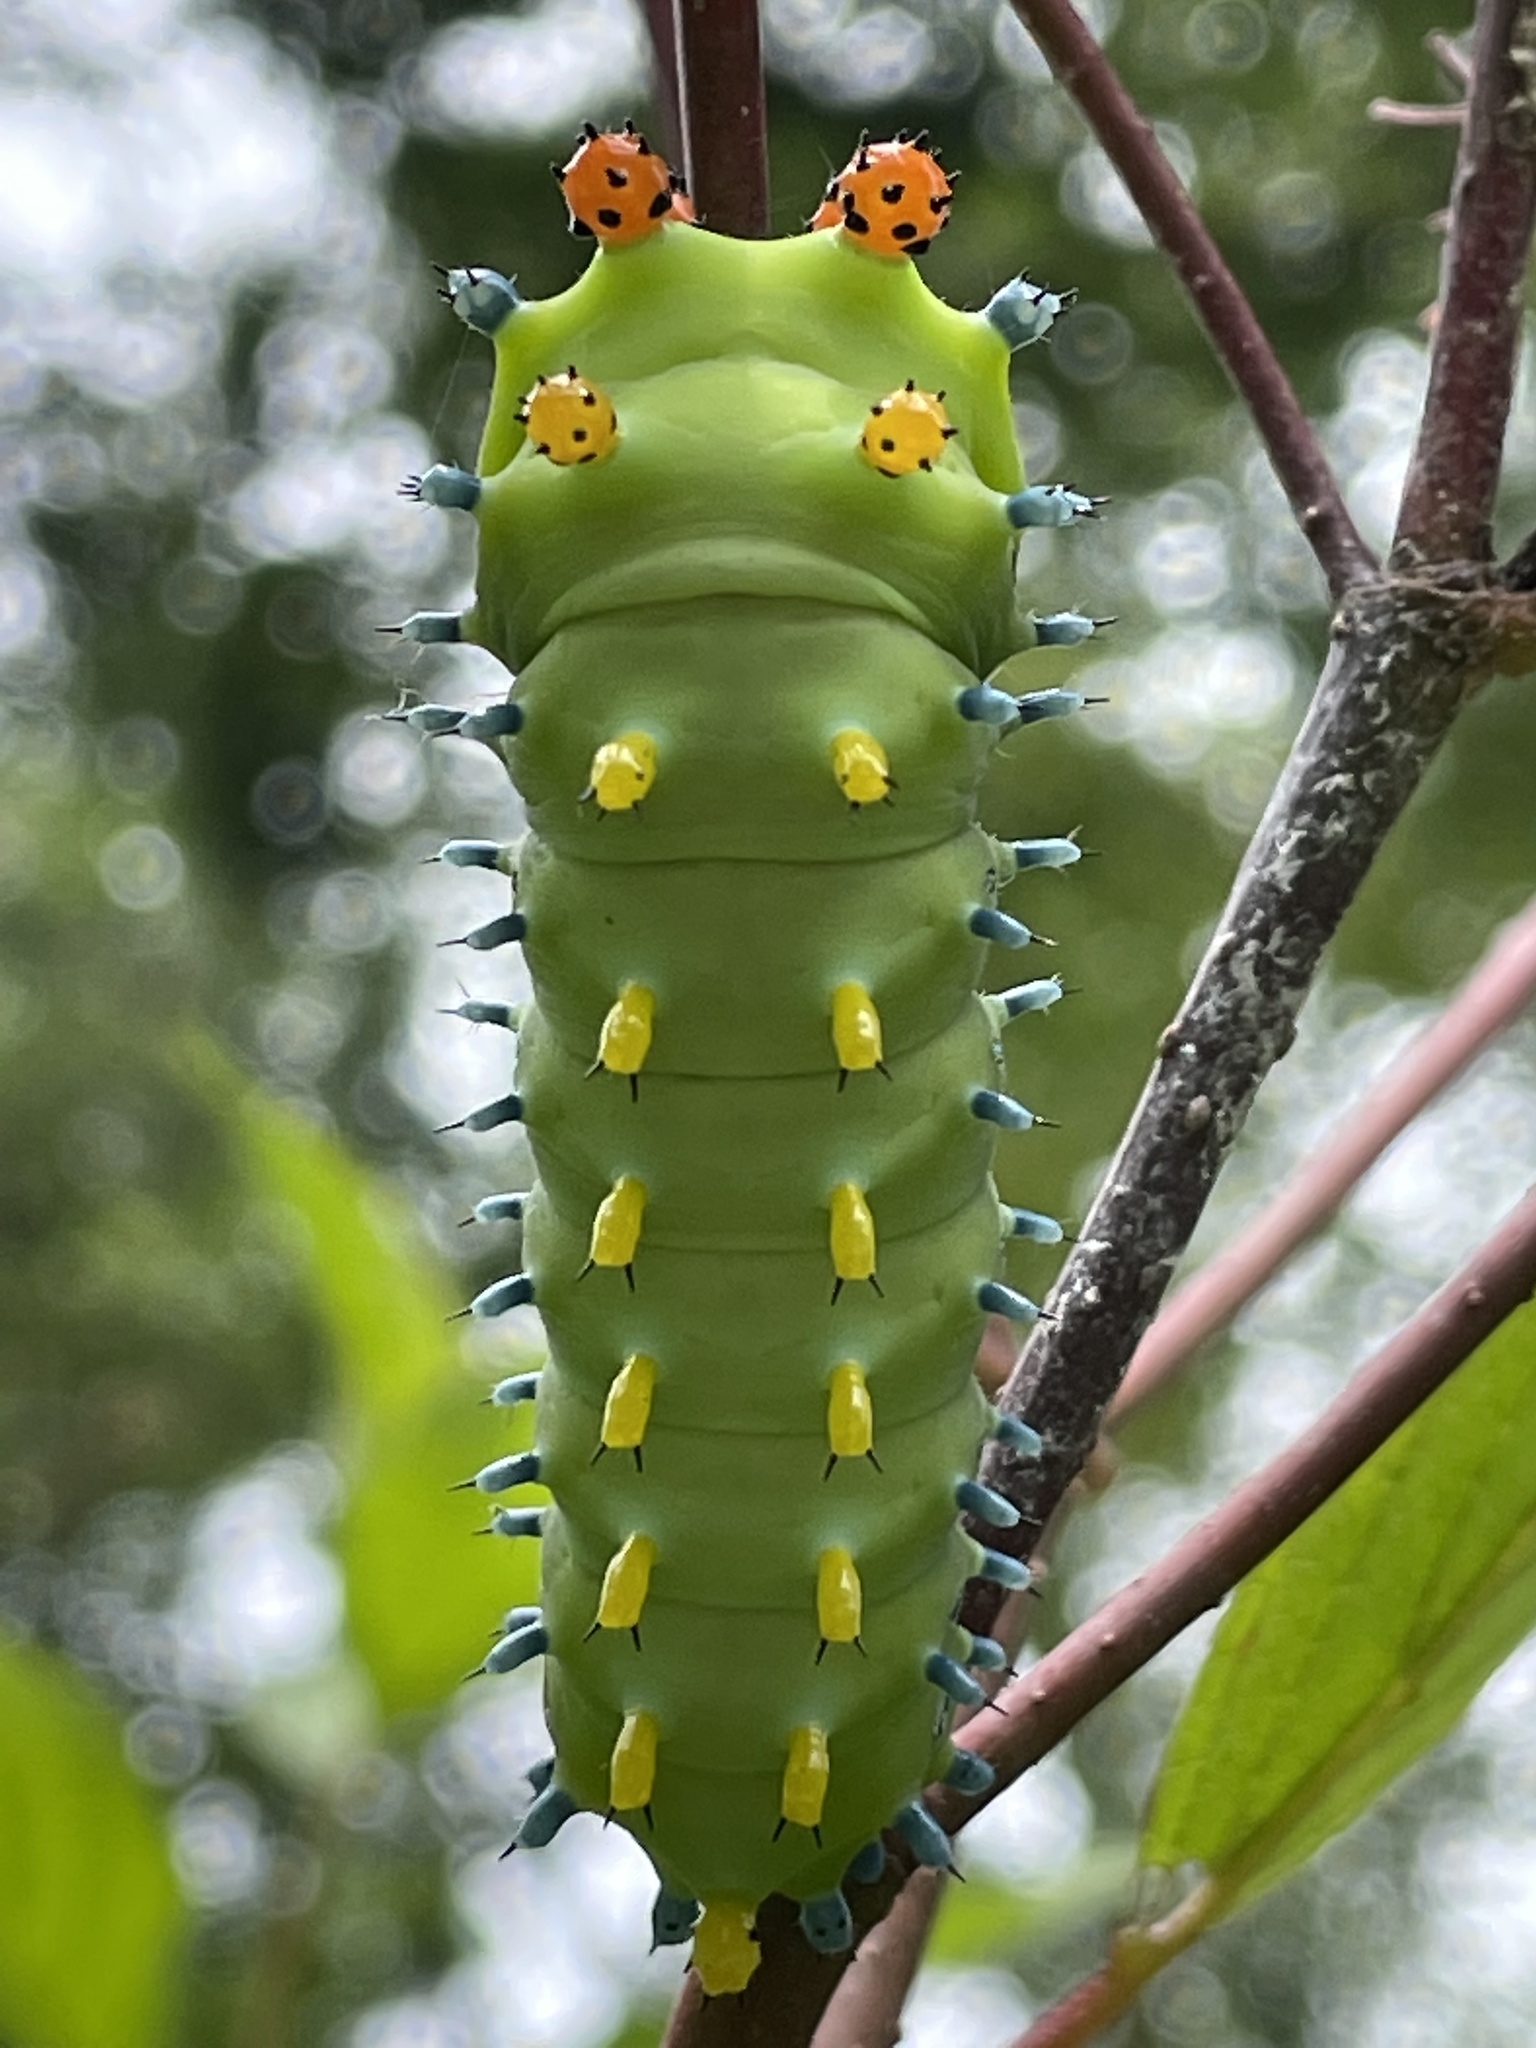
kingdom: Animalia
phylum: Arthropoda
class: Insecta
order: Lepidoptera
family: Saturniidae
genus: Hyalophora
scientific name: Hyalophora cecropia
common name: Cecropia silkmoth
